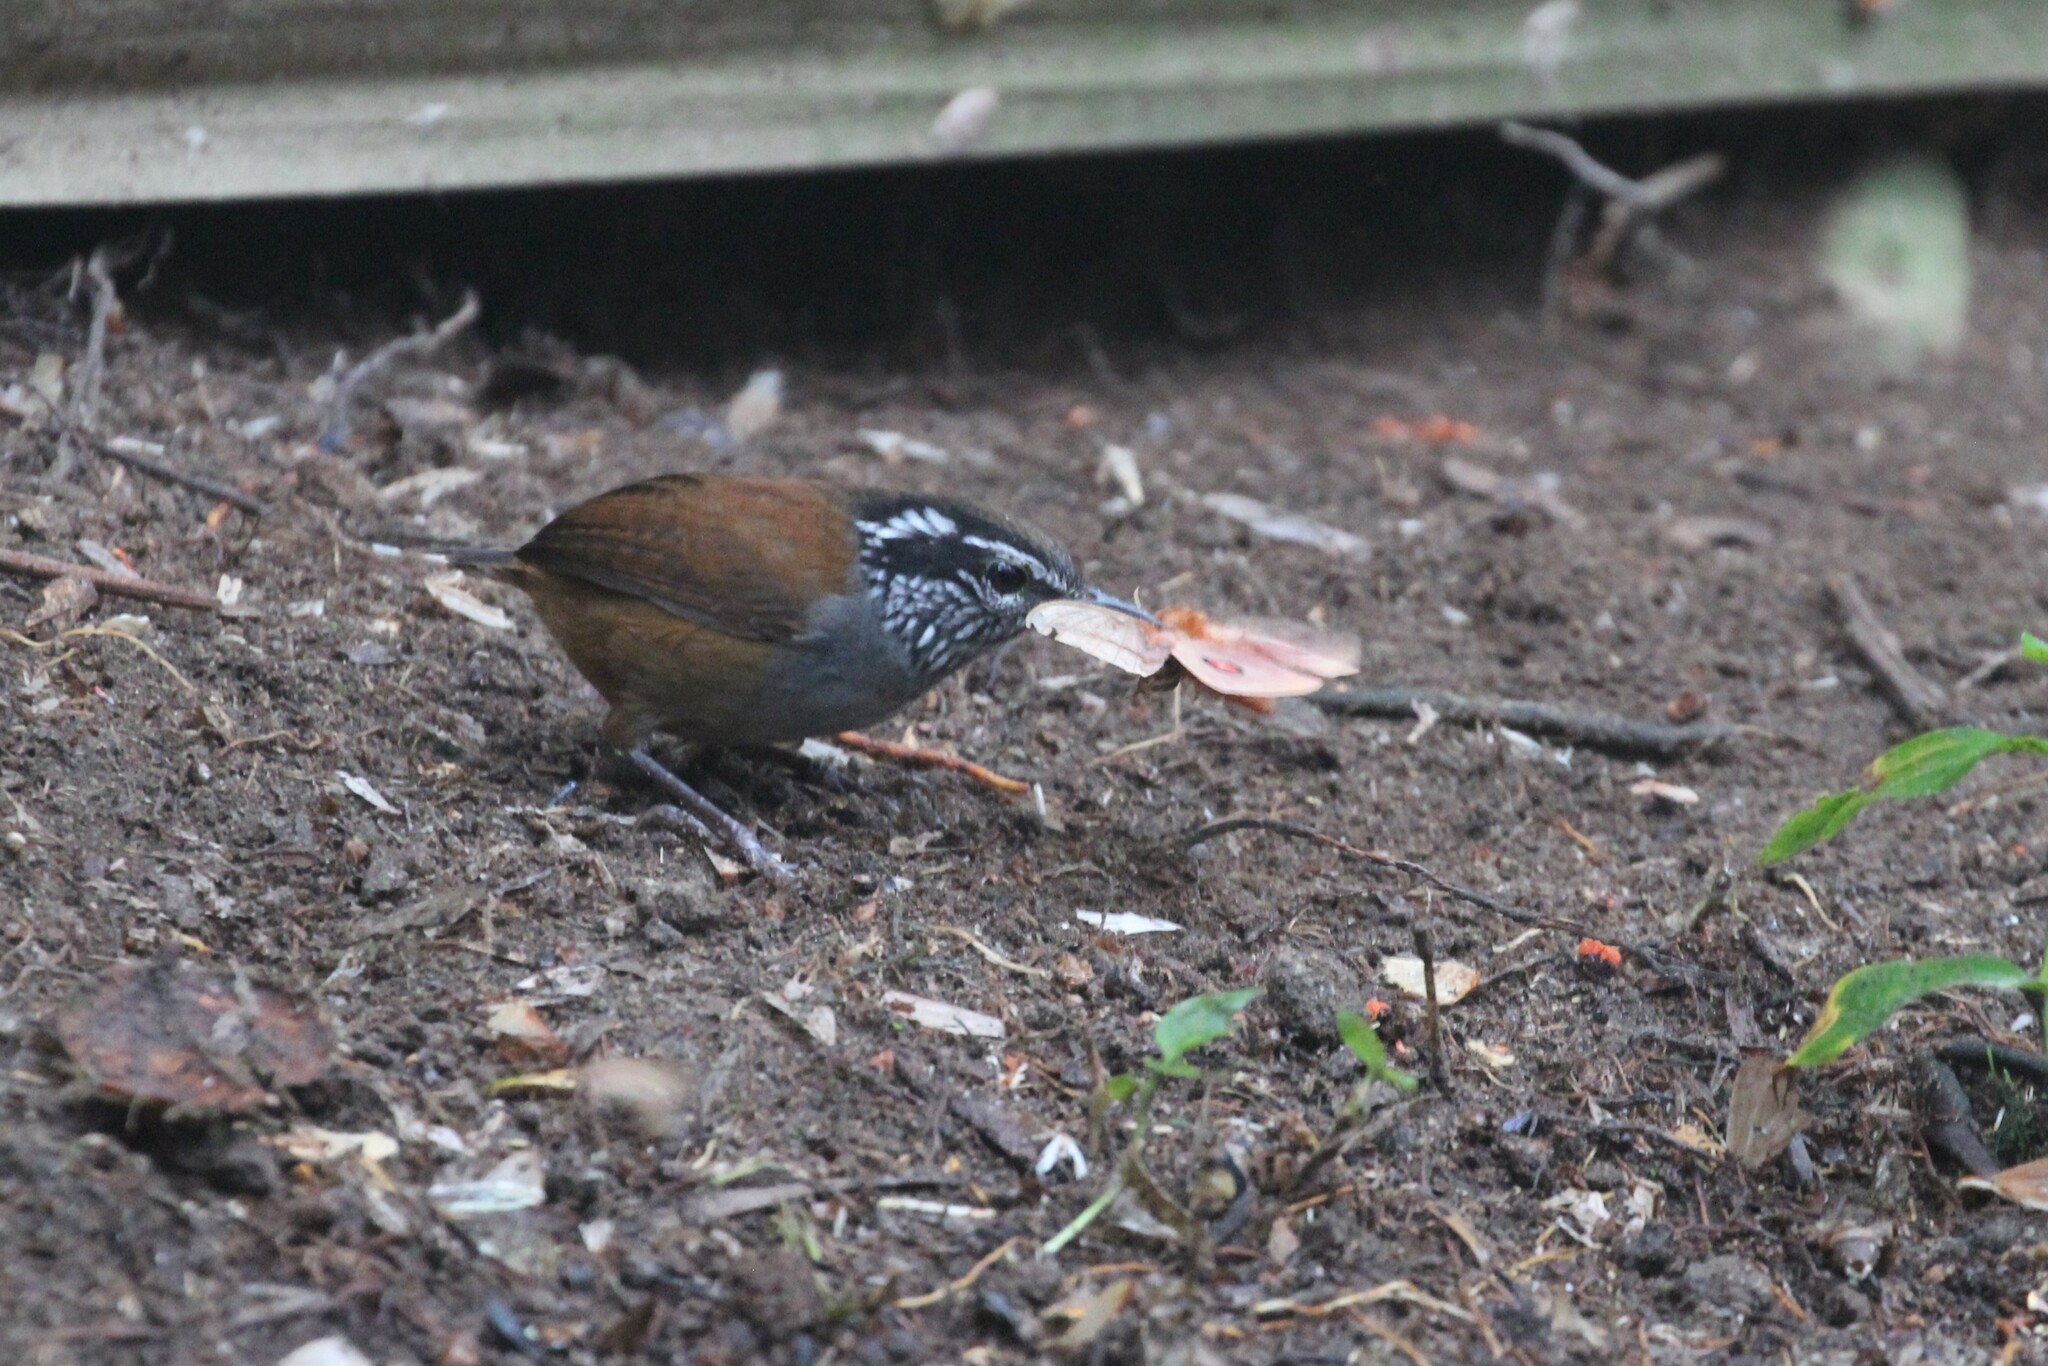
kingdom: Animalia
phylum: Chordata
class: Aves
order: Passeriformes
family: Troglodytidae
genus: Henicorhina
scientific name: Henicorhina leucophrys
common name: Gray-breasted wood-wren
